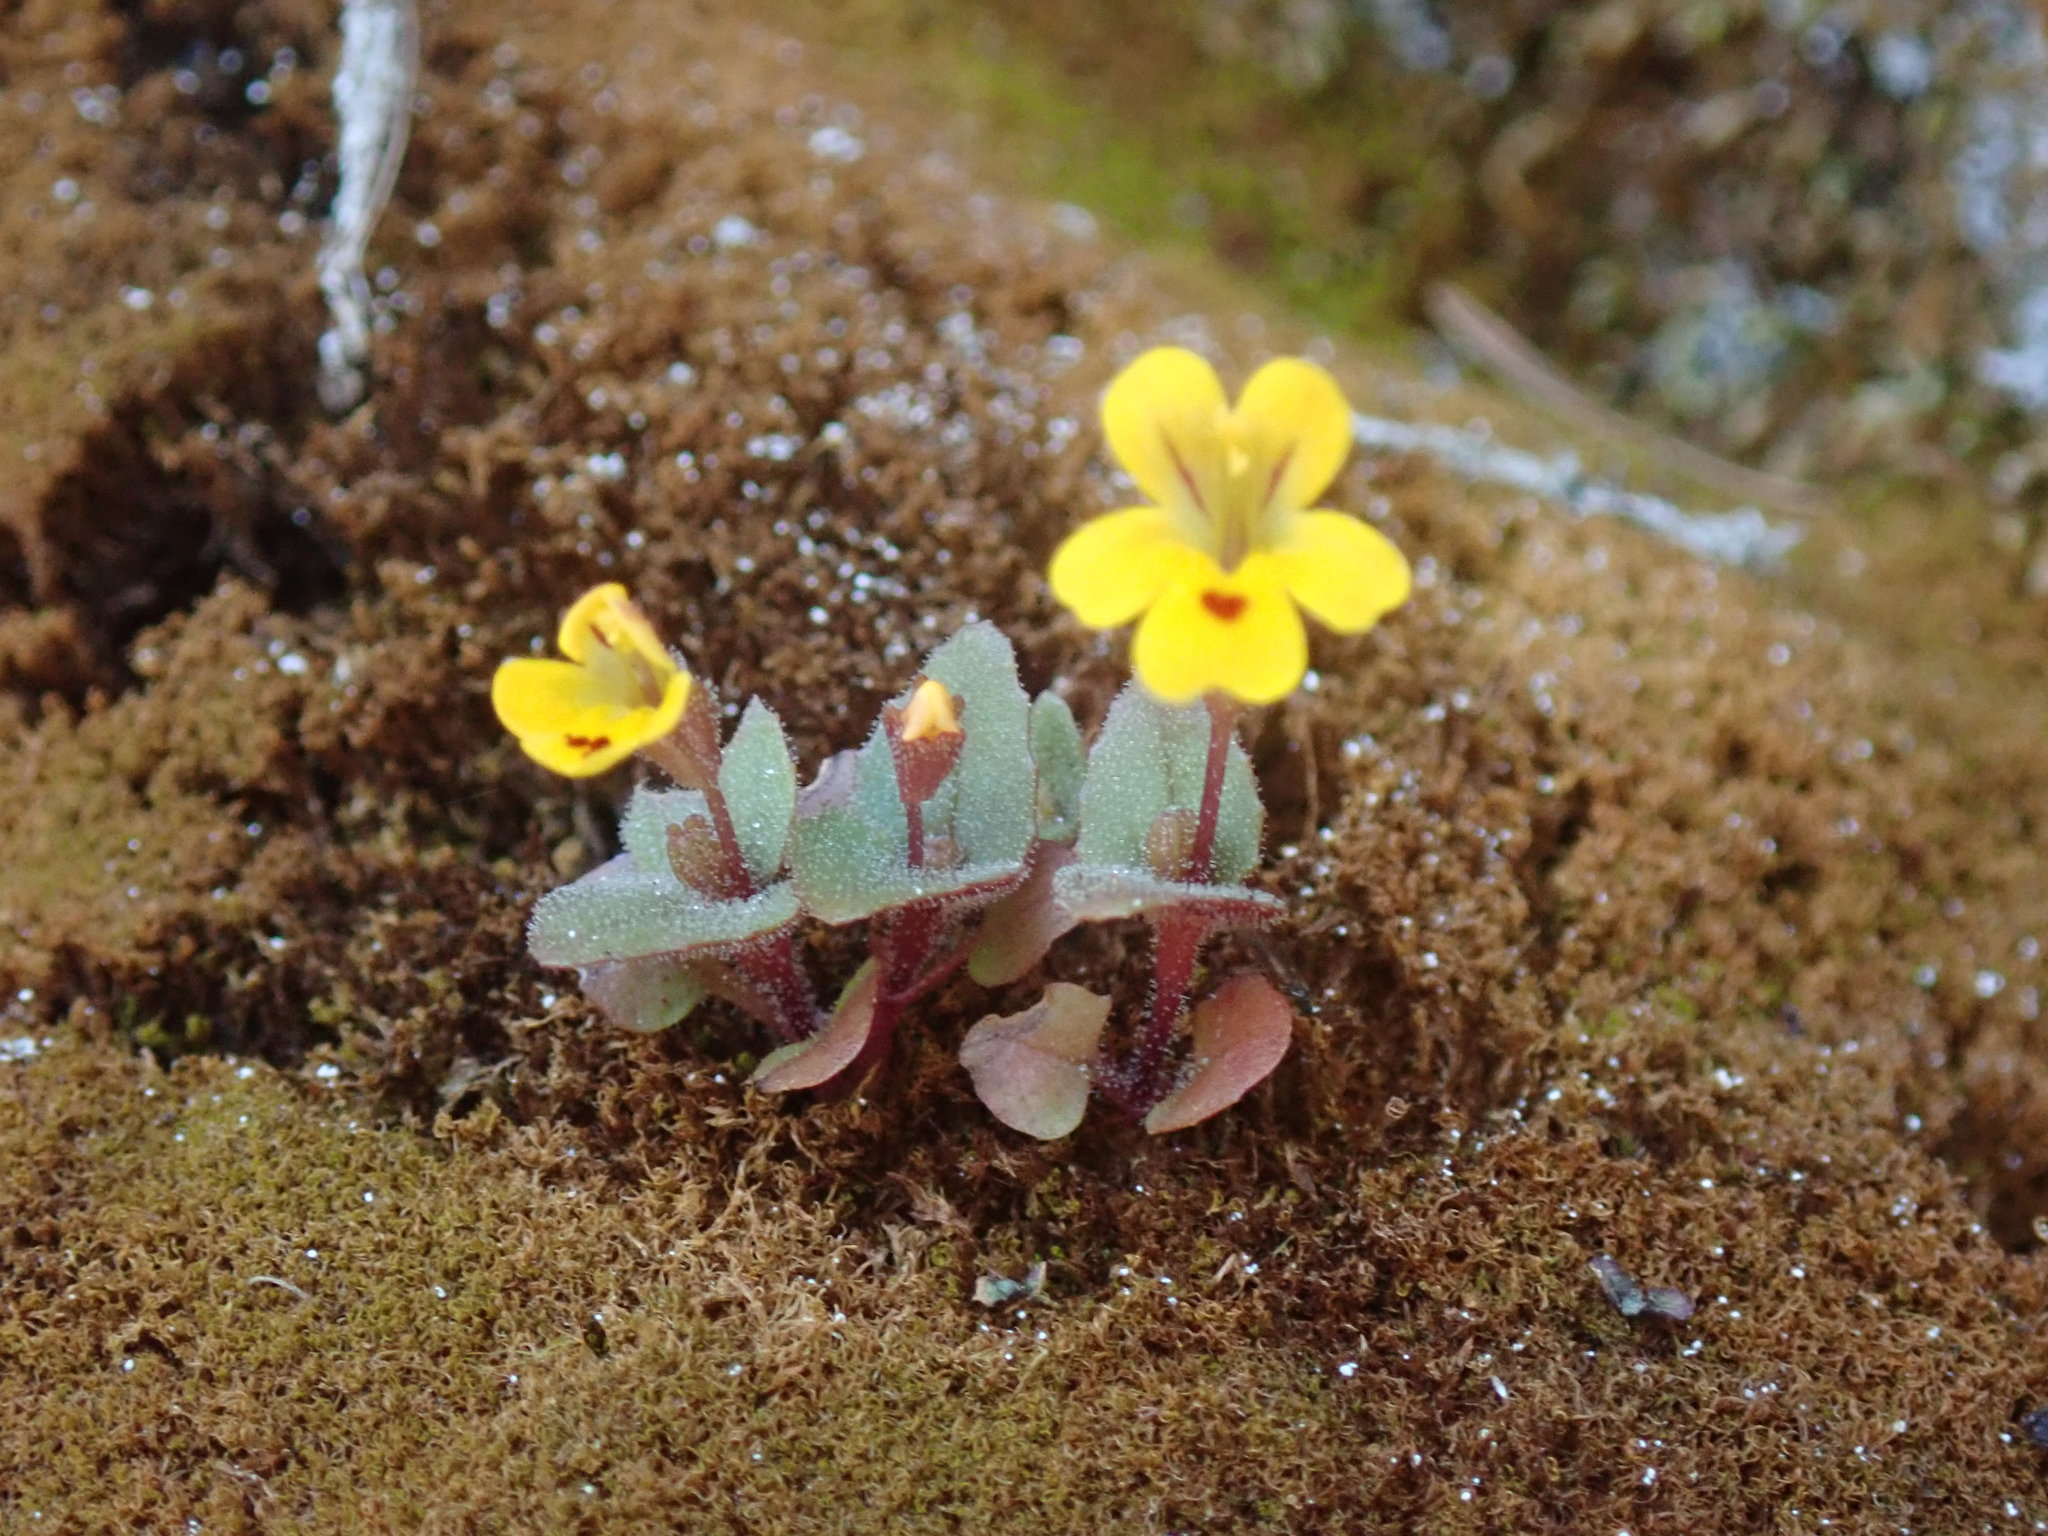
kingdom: Plantae
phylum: Tracheophyta
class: Magnoliopsida
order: Lamiales
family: Phrymaceae
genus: Erythranthe
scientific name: Erythranthe alsinoides
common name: Chickweed monkeyflower
